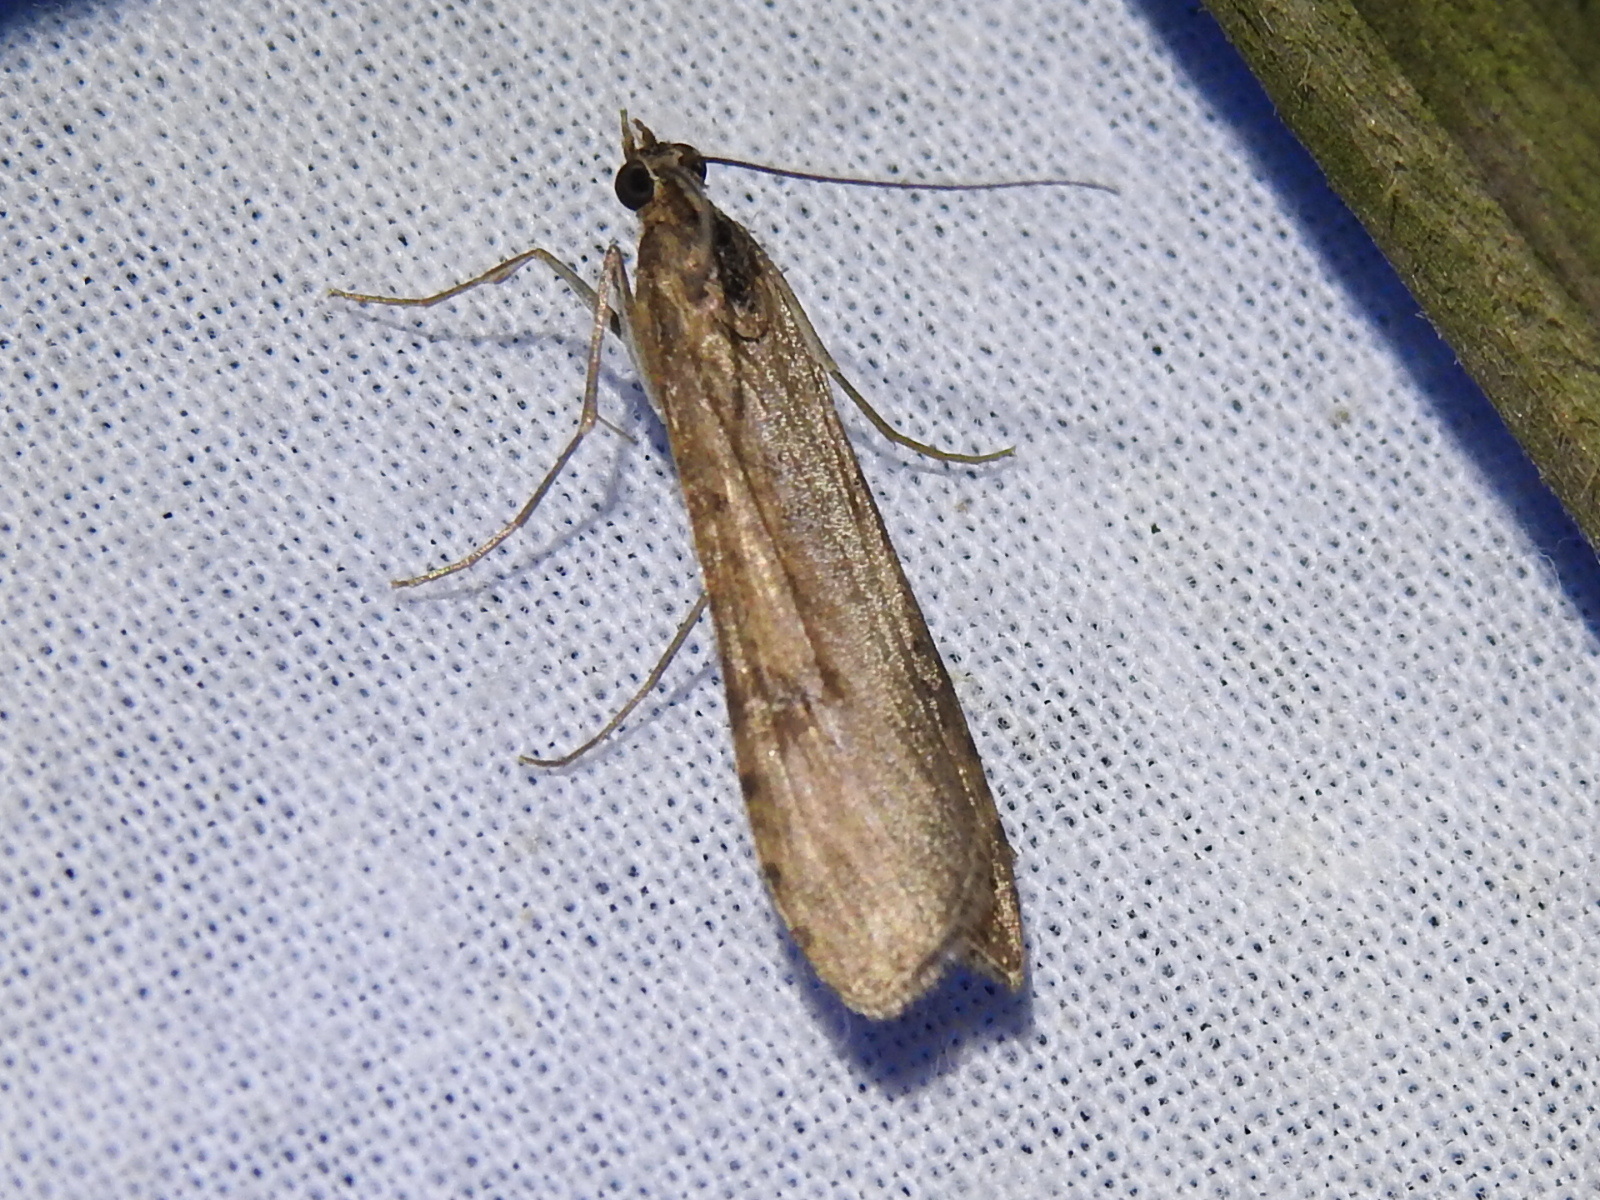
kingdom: Animalia
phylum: Arthropoda
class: Insecta
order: Lepidoptera
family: Crambidae
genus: Nomophila
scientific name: Nomophila nearctica
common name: American rush veneer
